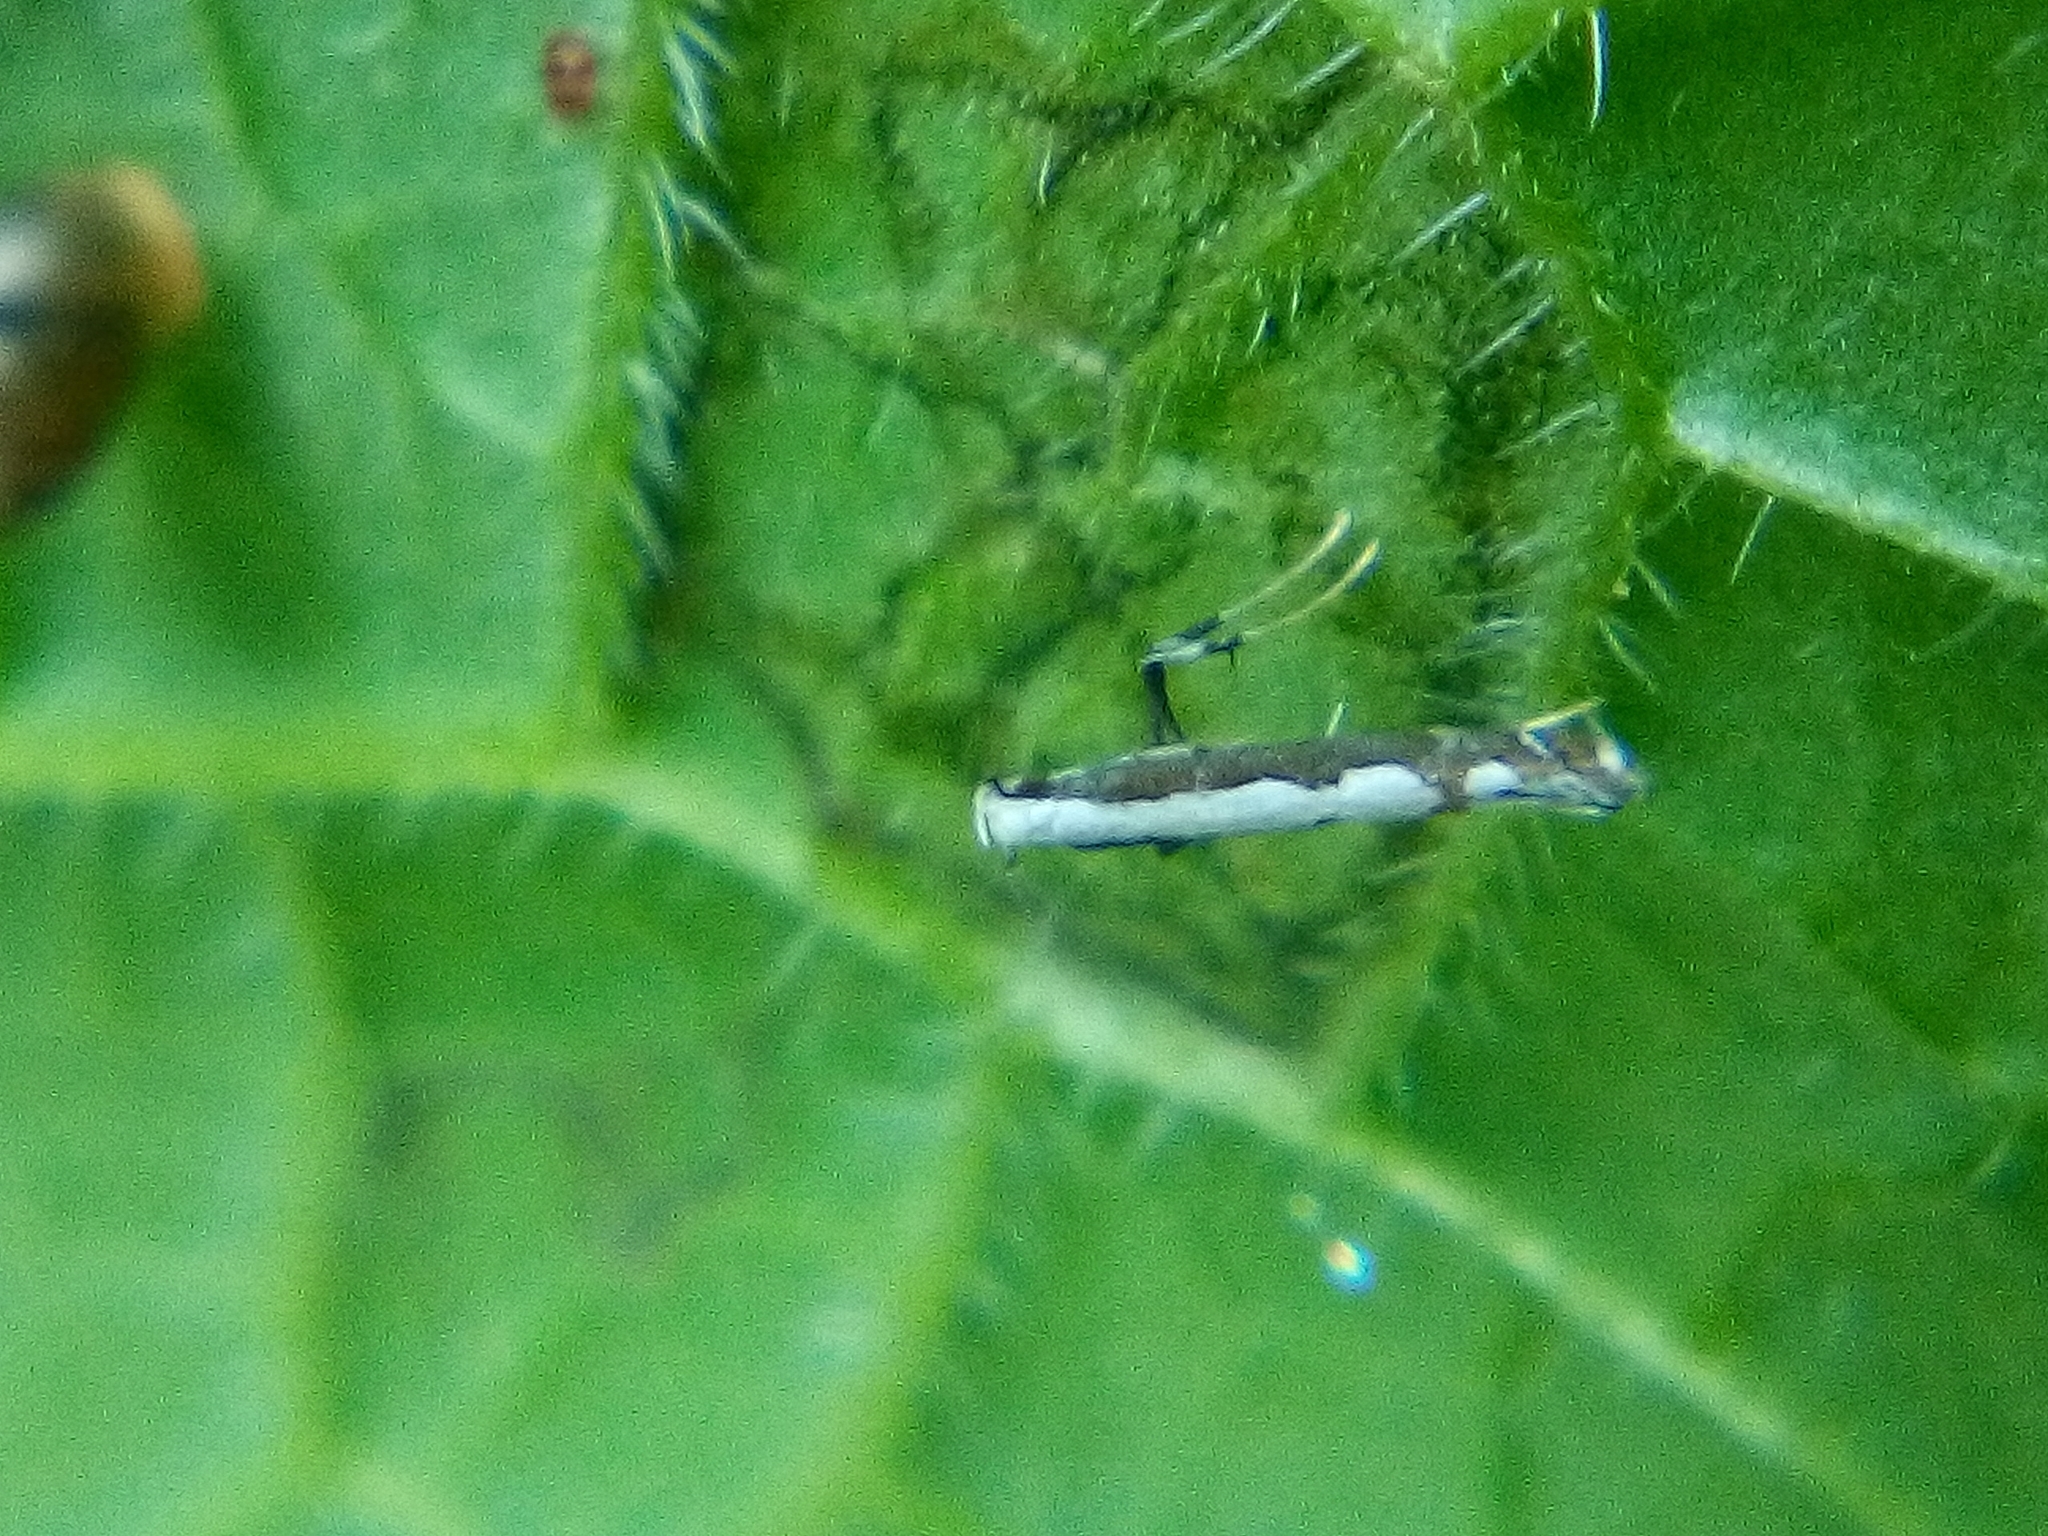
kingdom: Animalia
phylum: Arthropoda
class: Insecta
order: Lepidoptera
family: Gracillariidae
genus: Dialectica
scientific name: Dialectica scalariella
